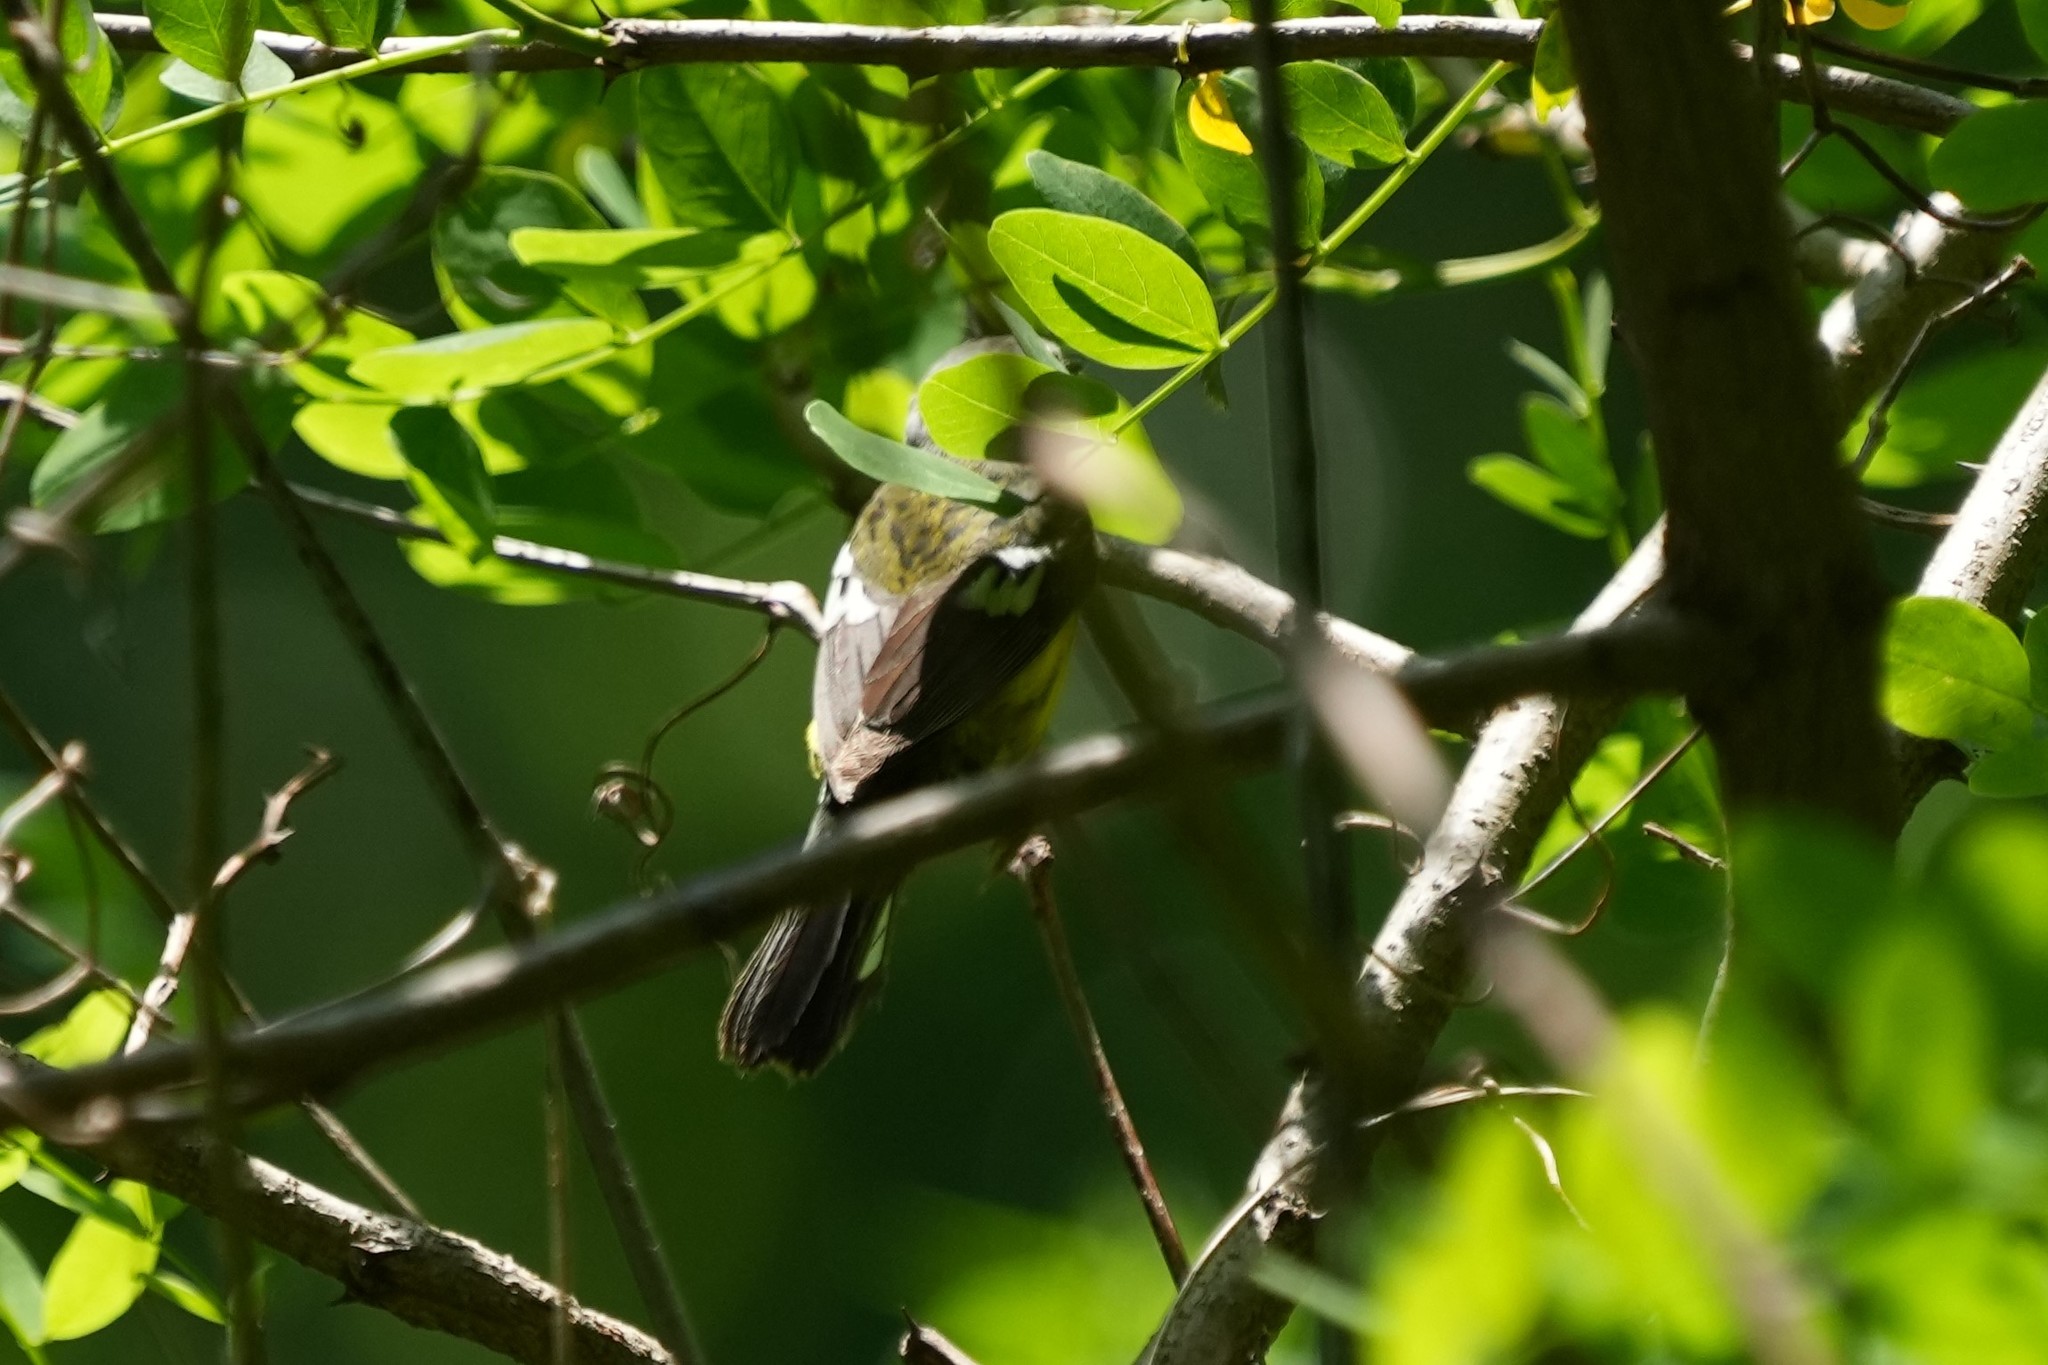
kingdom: Animalia
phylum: Chordata
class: Aves
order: Passeriformes
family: Parulidae
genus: Setophaga
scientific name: Setophaga magnolia
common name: Magnolia warbler
